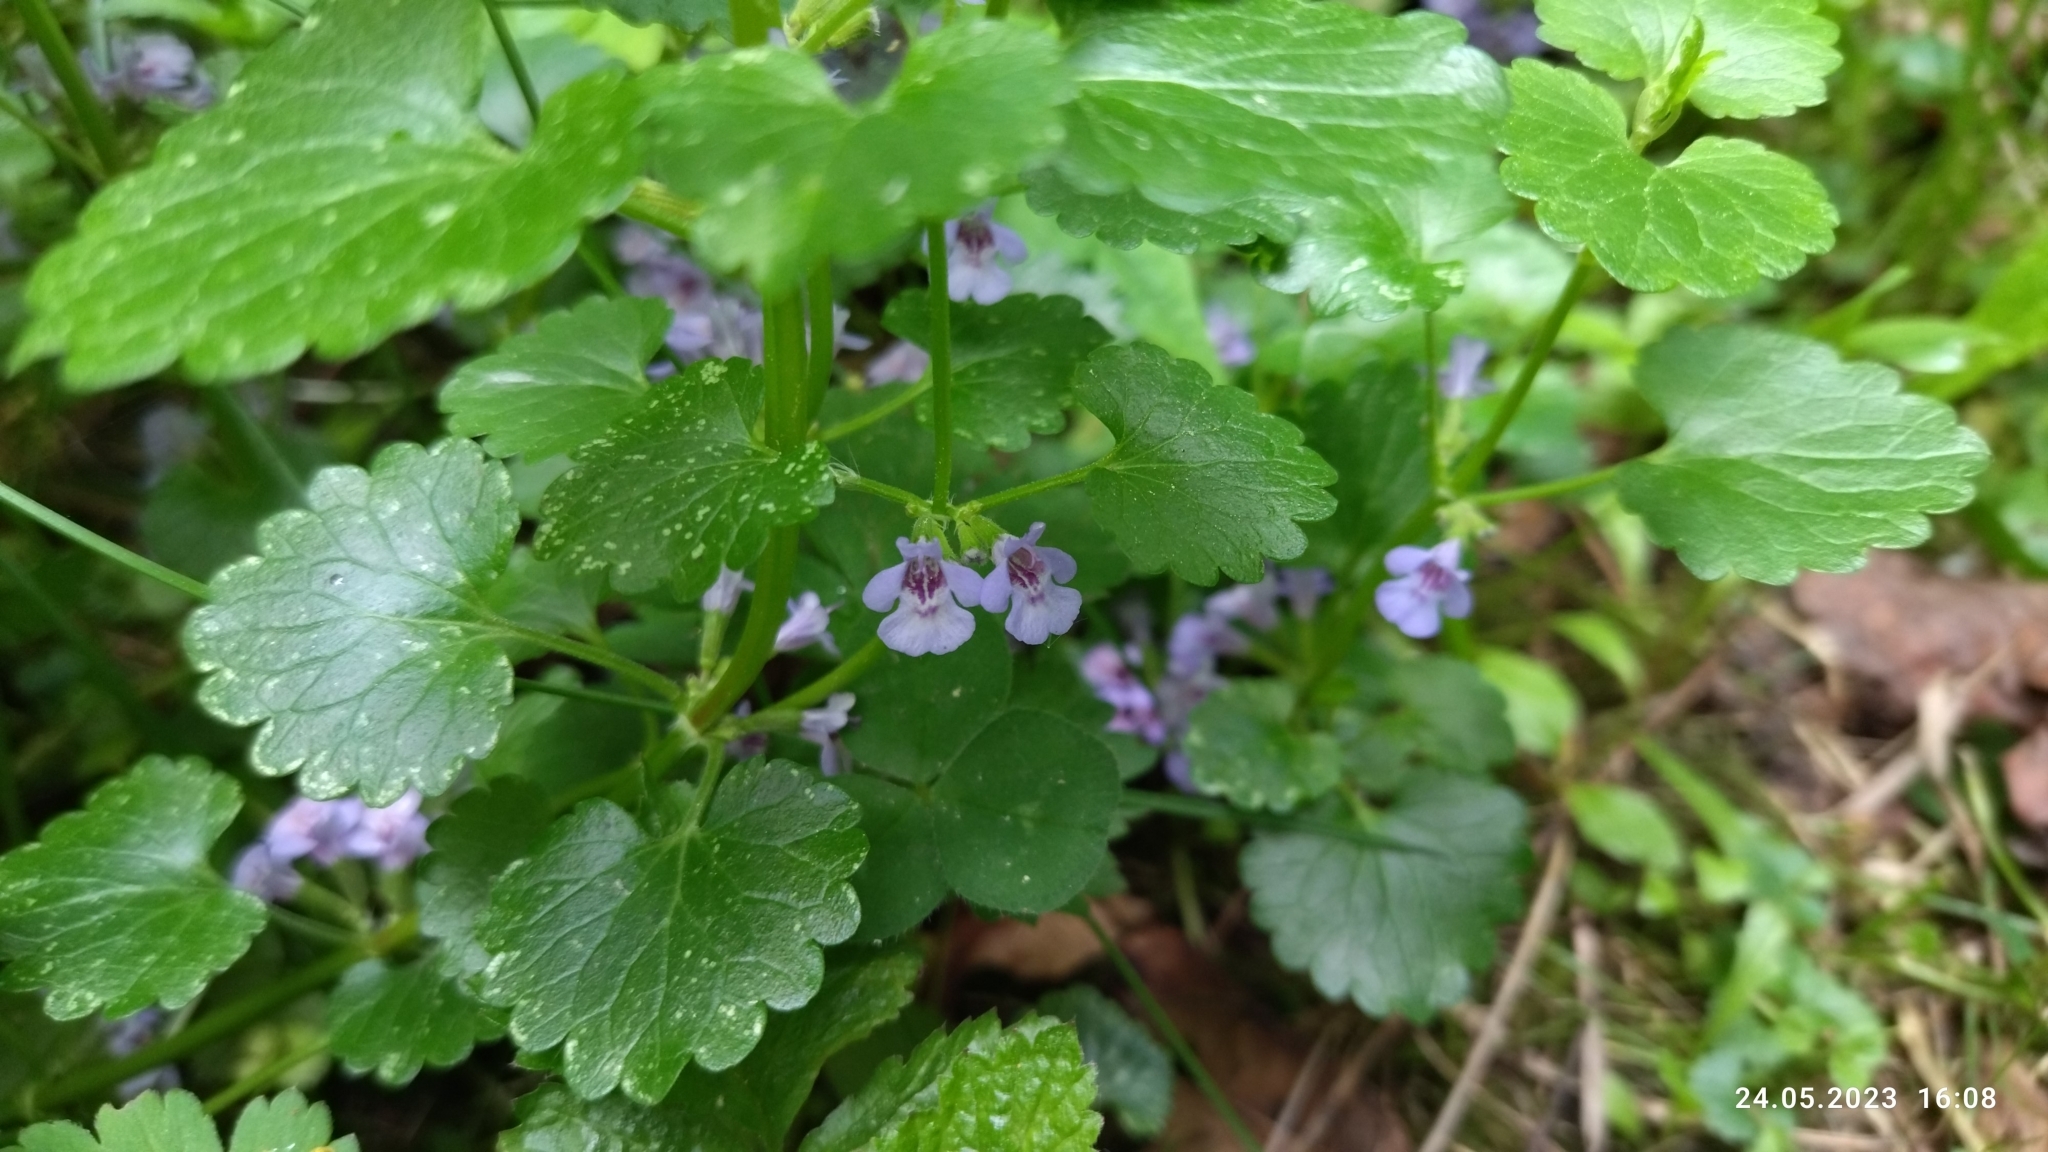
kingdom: Plantae
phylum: Tracheophyta
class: Magnoliopsida
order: Lamiales
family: Lamiaceae
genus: Glechoma
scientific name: Glechoma hederacea
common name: Ground ivy
